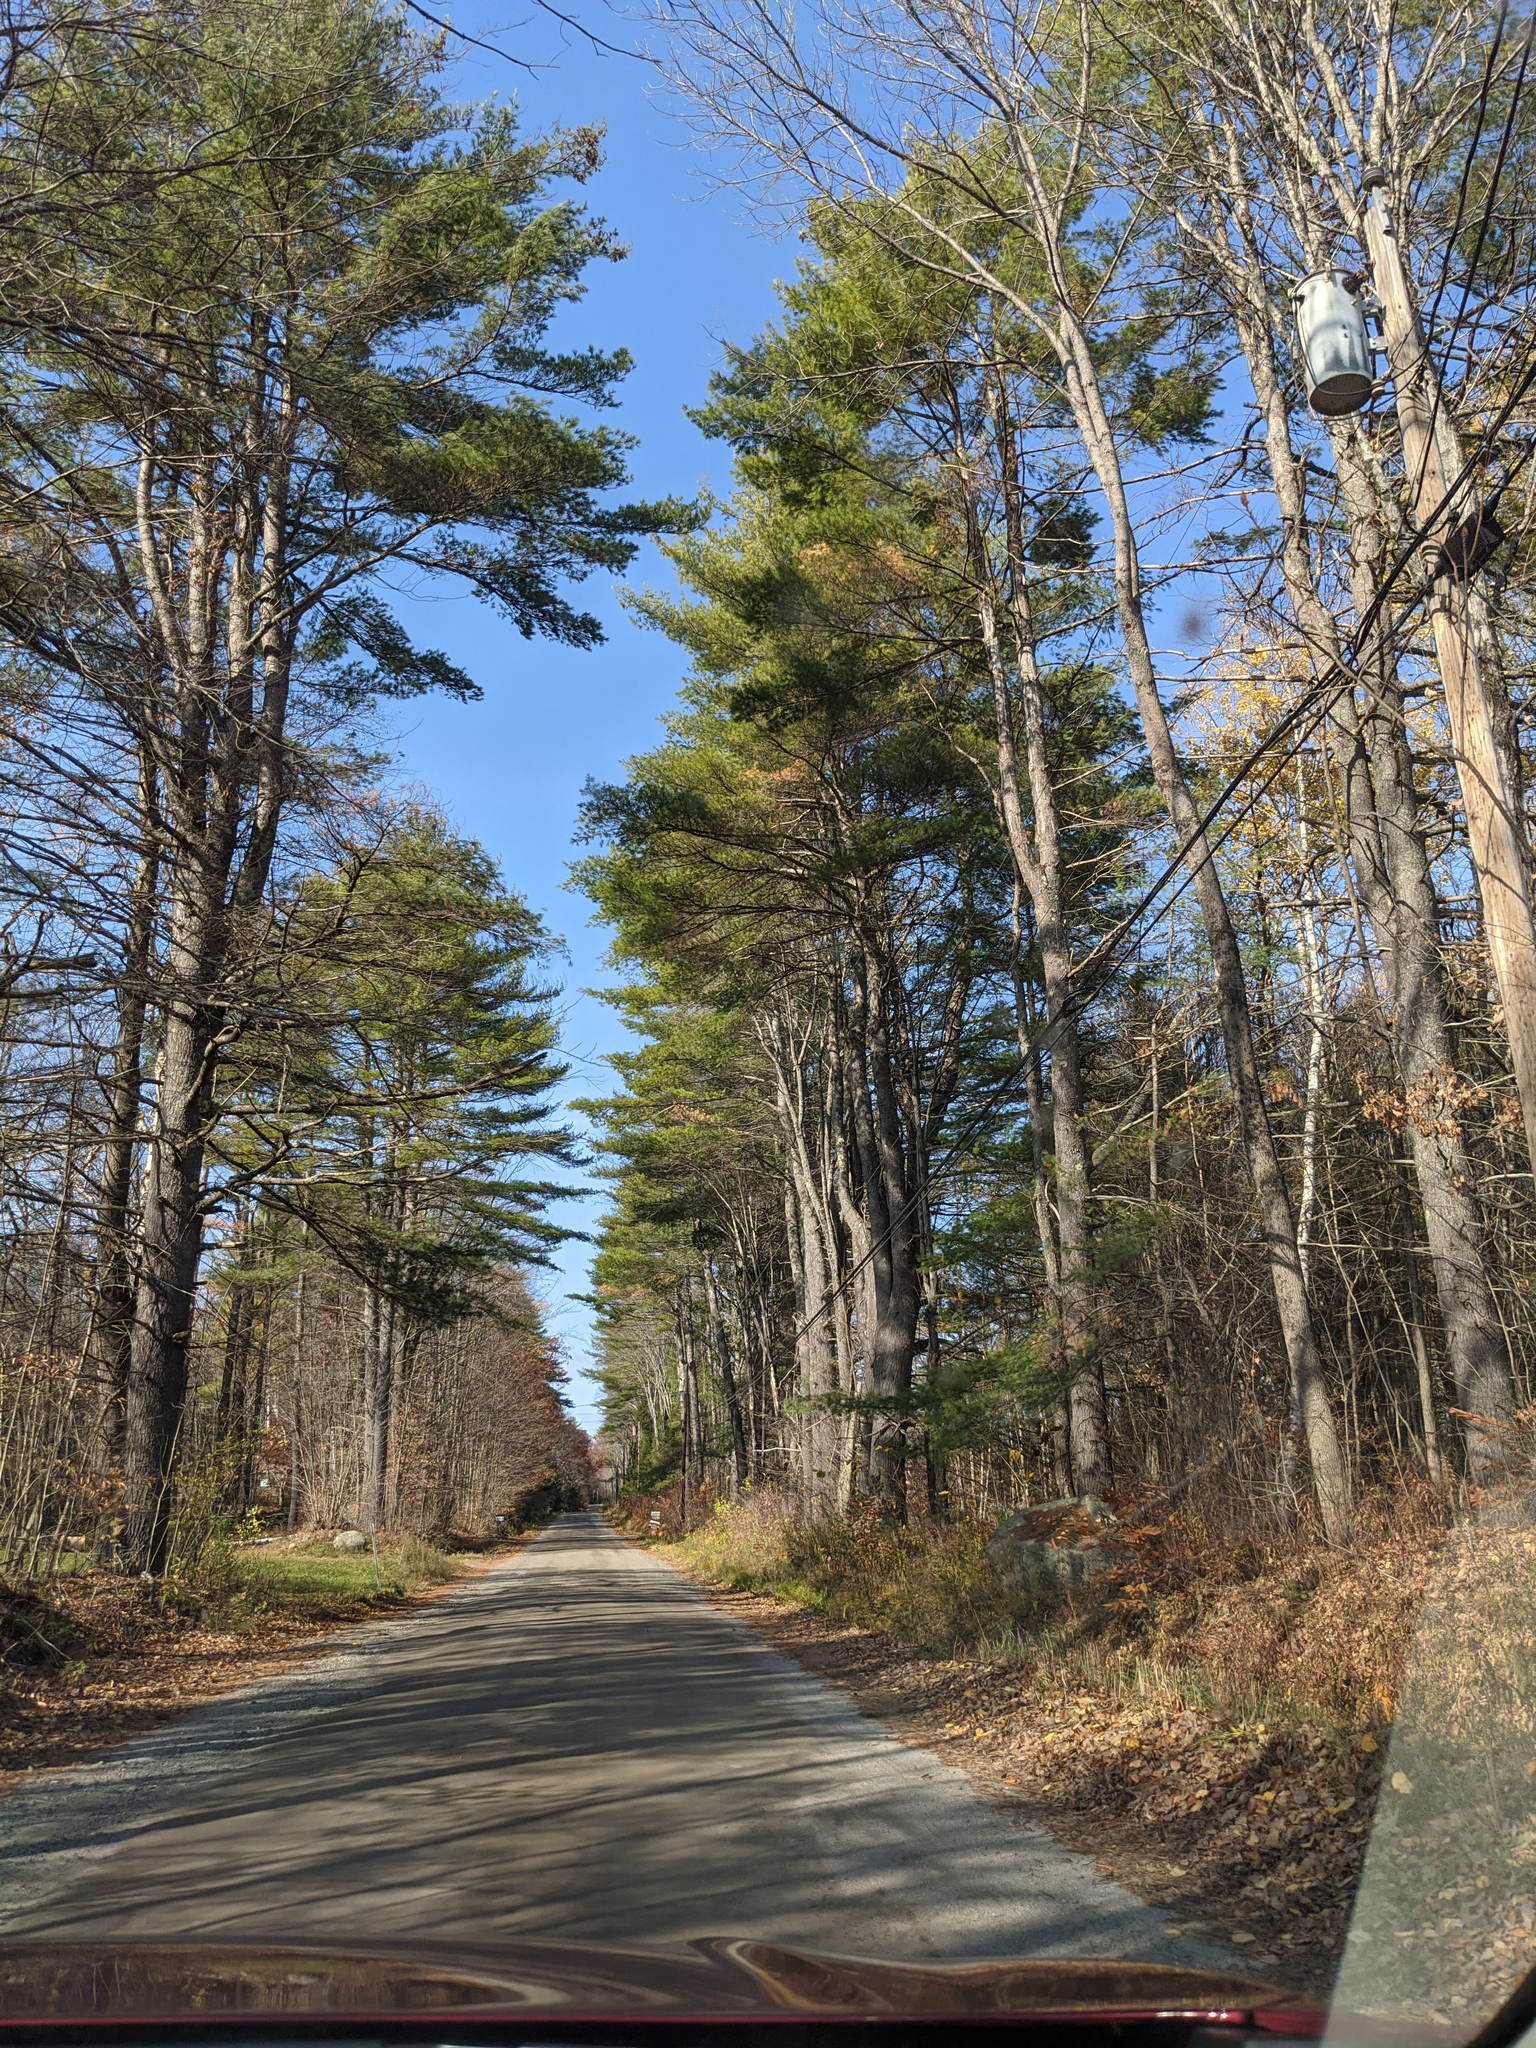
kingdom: Plantae
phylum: Tracheophyta
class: Pinopsida
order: Pinales
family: Pinaceae
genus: Pinus
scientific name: Pinus strobus
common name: Weymouth pine
